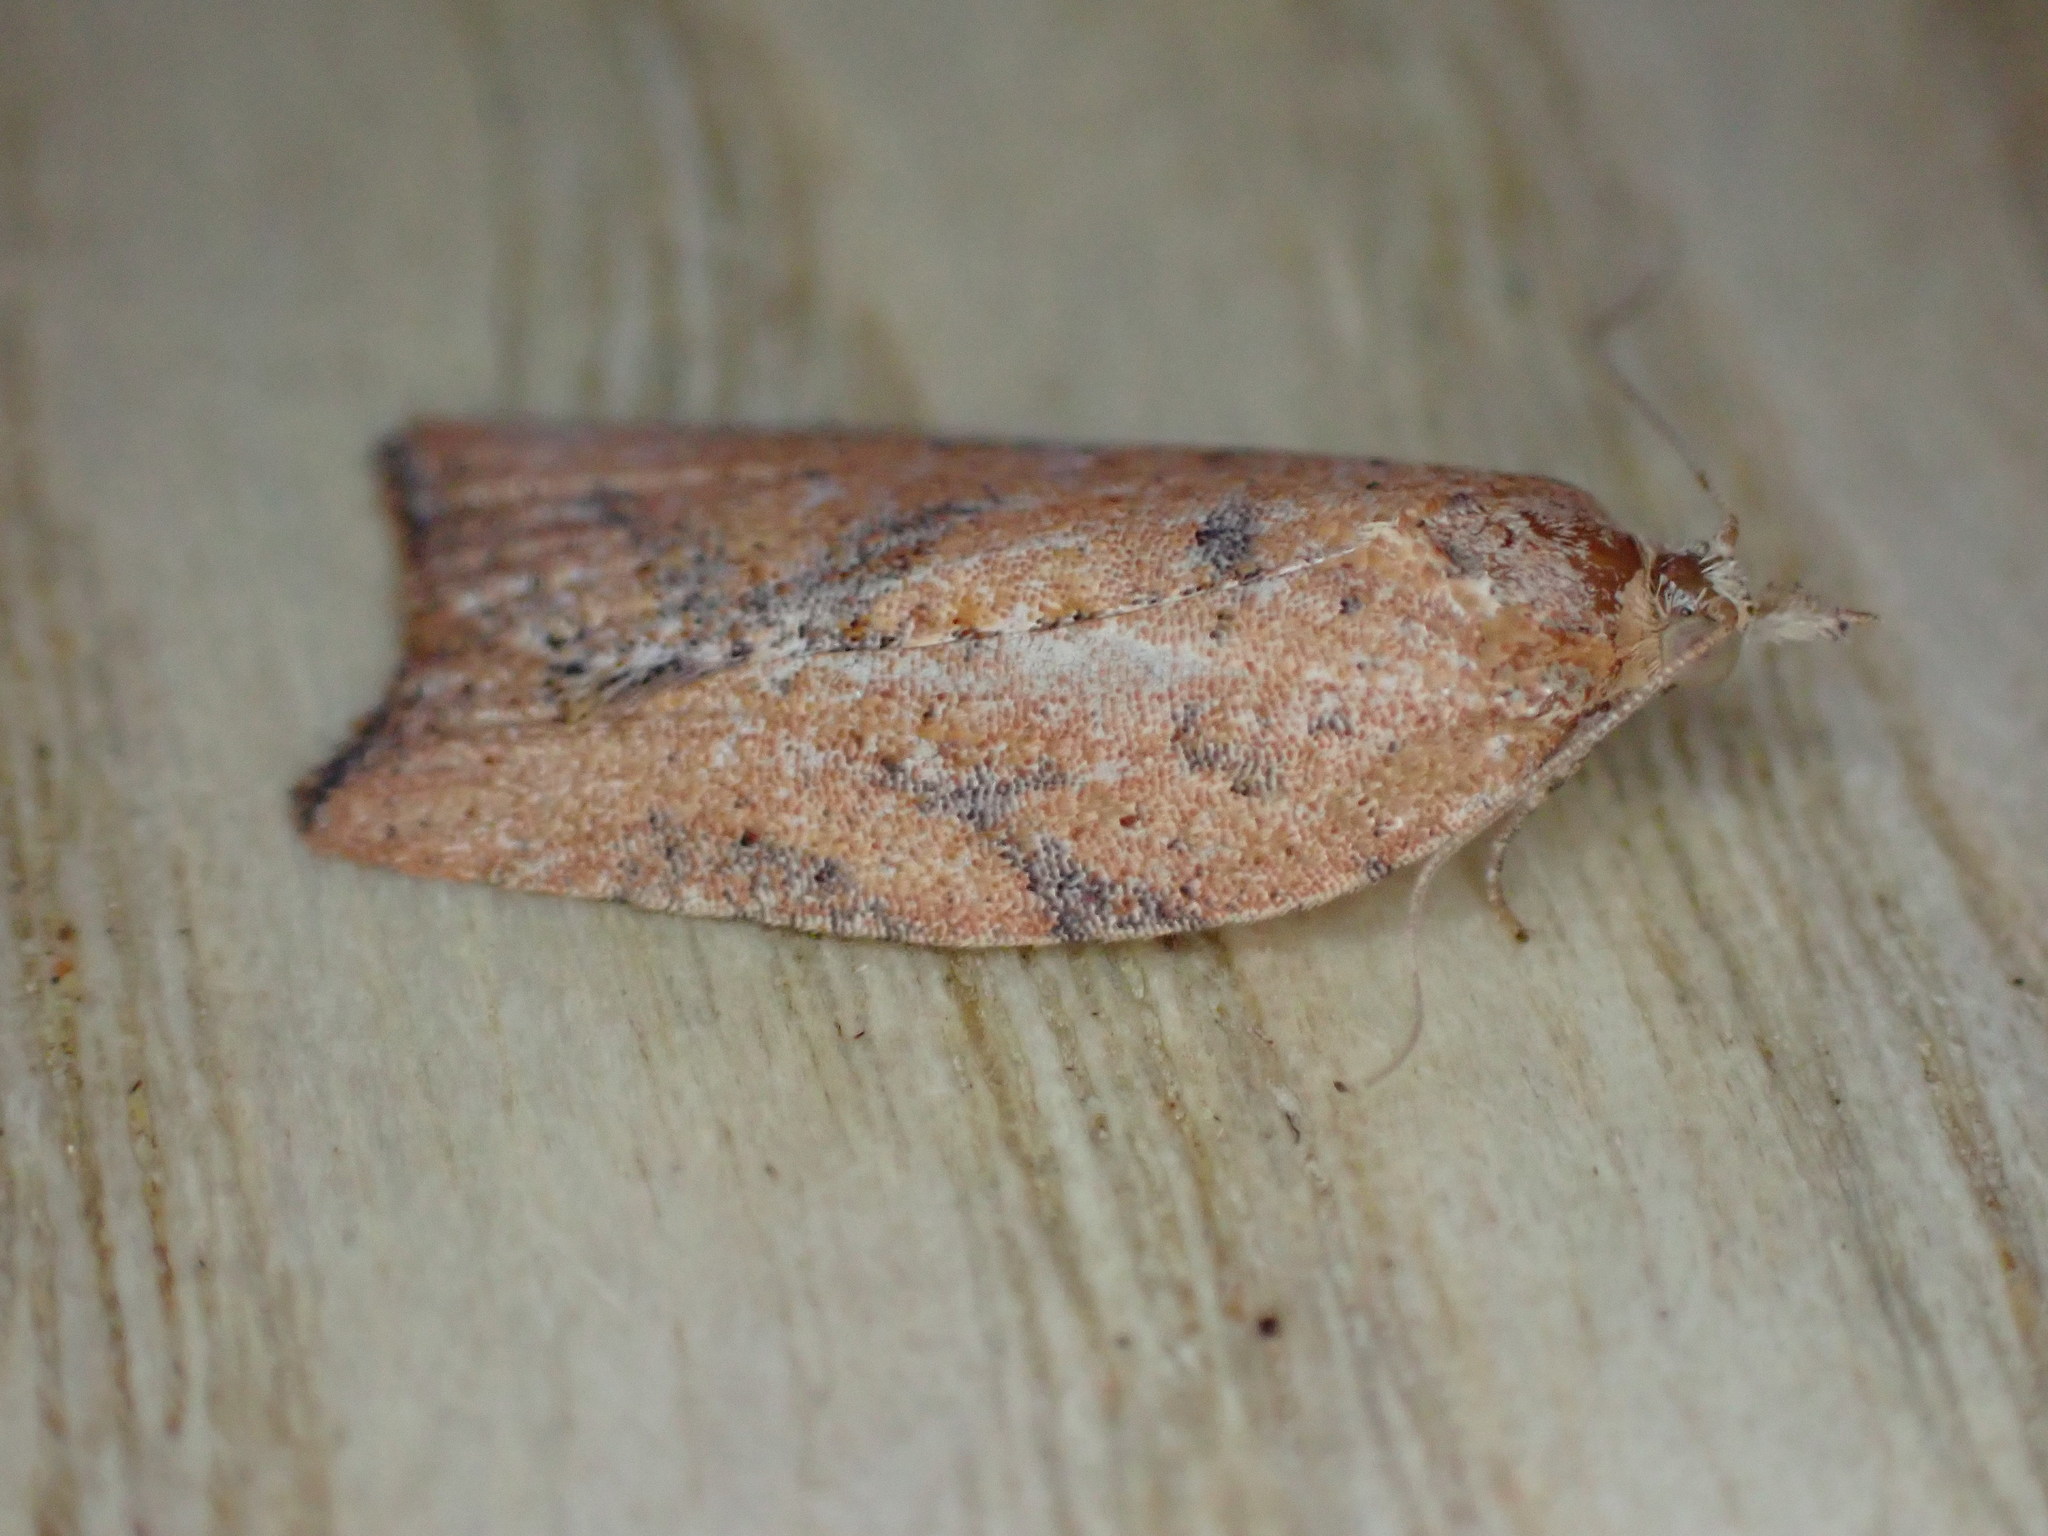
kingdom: Animalia
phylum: Arthropoda
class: Insecta
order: Lepidoptera
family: Tortricidae
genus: Epiphyas
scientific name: Epiphyas postvittana
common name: Light brown apple moth
